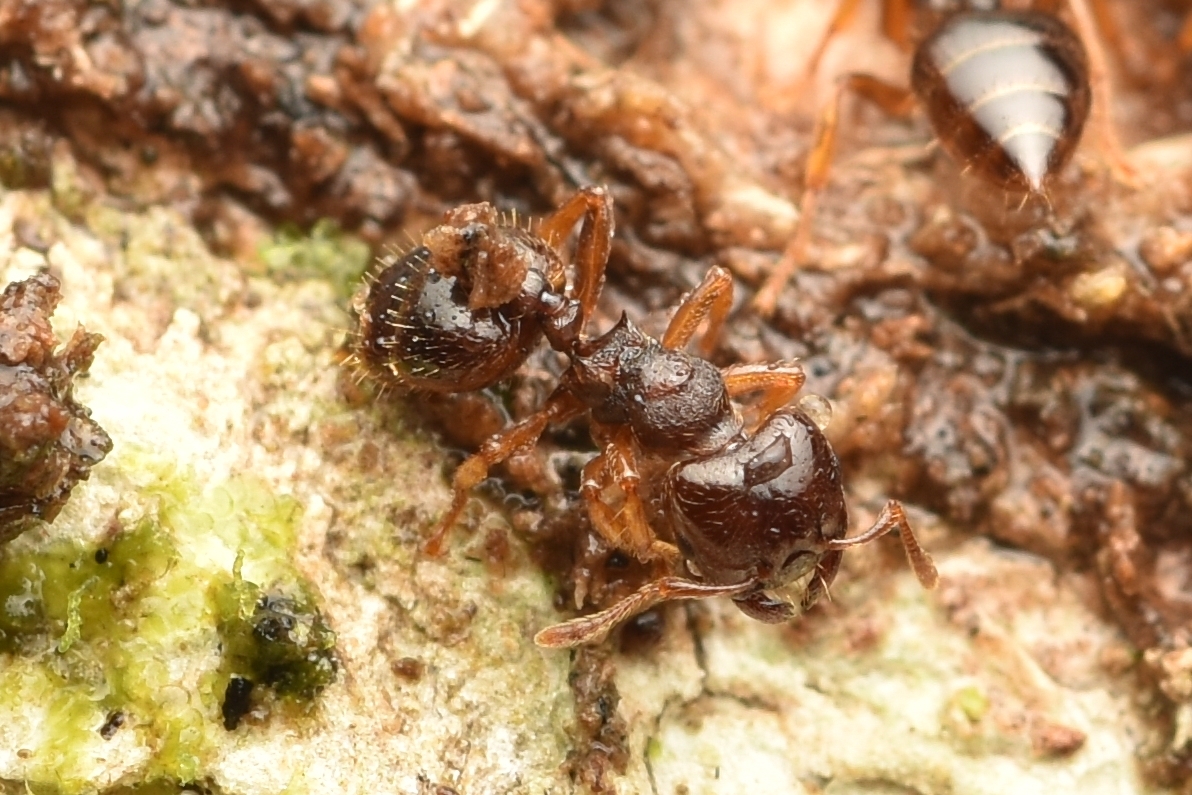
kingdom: Animalia
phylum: Arthropoda
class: Insecta
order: Hymenoptera
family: Formicidae
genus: Crematogaster
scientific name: Crematogaster stollii
